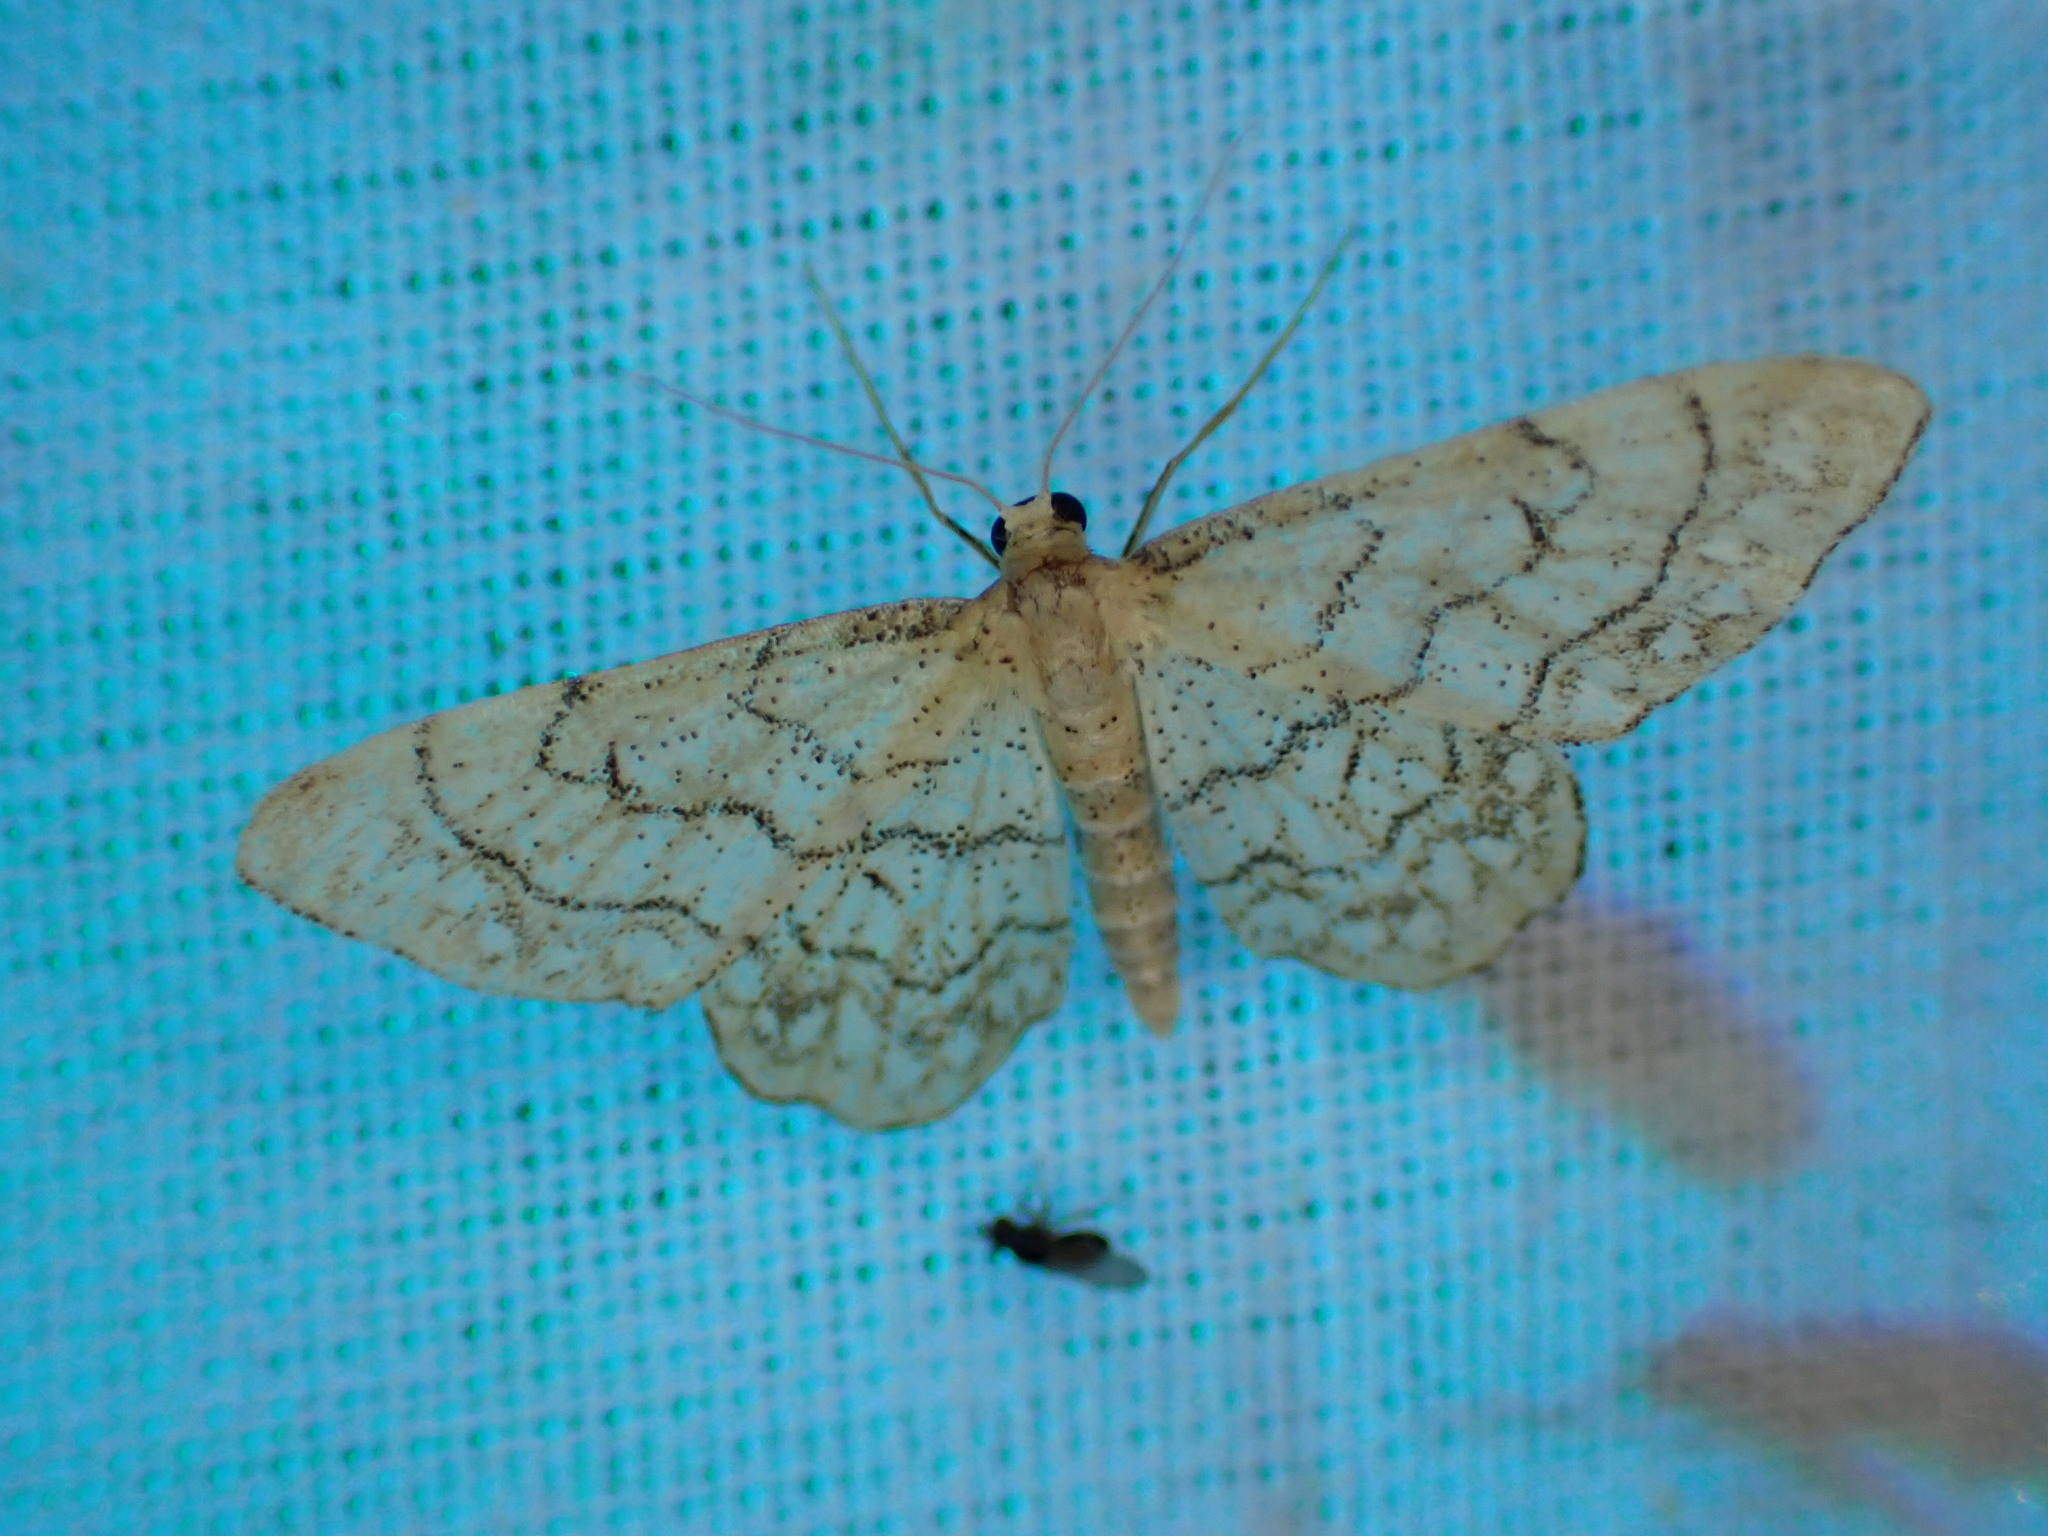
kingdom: Animalia
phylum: Arthropoda
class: Insecta
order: Lepidoptera
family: Geometridae
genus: Idaea
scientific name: Idaea moniliata
